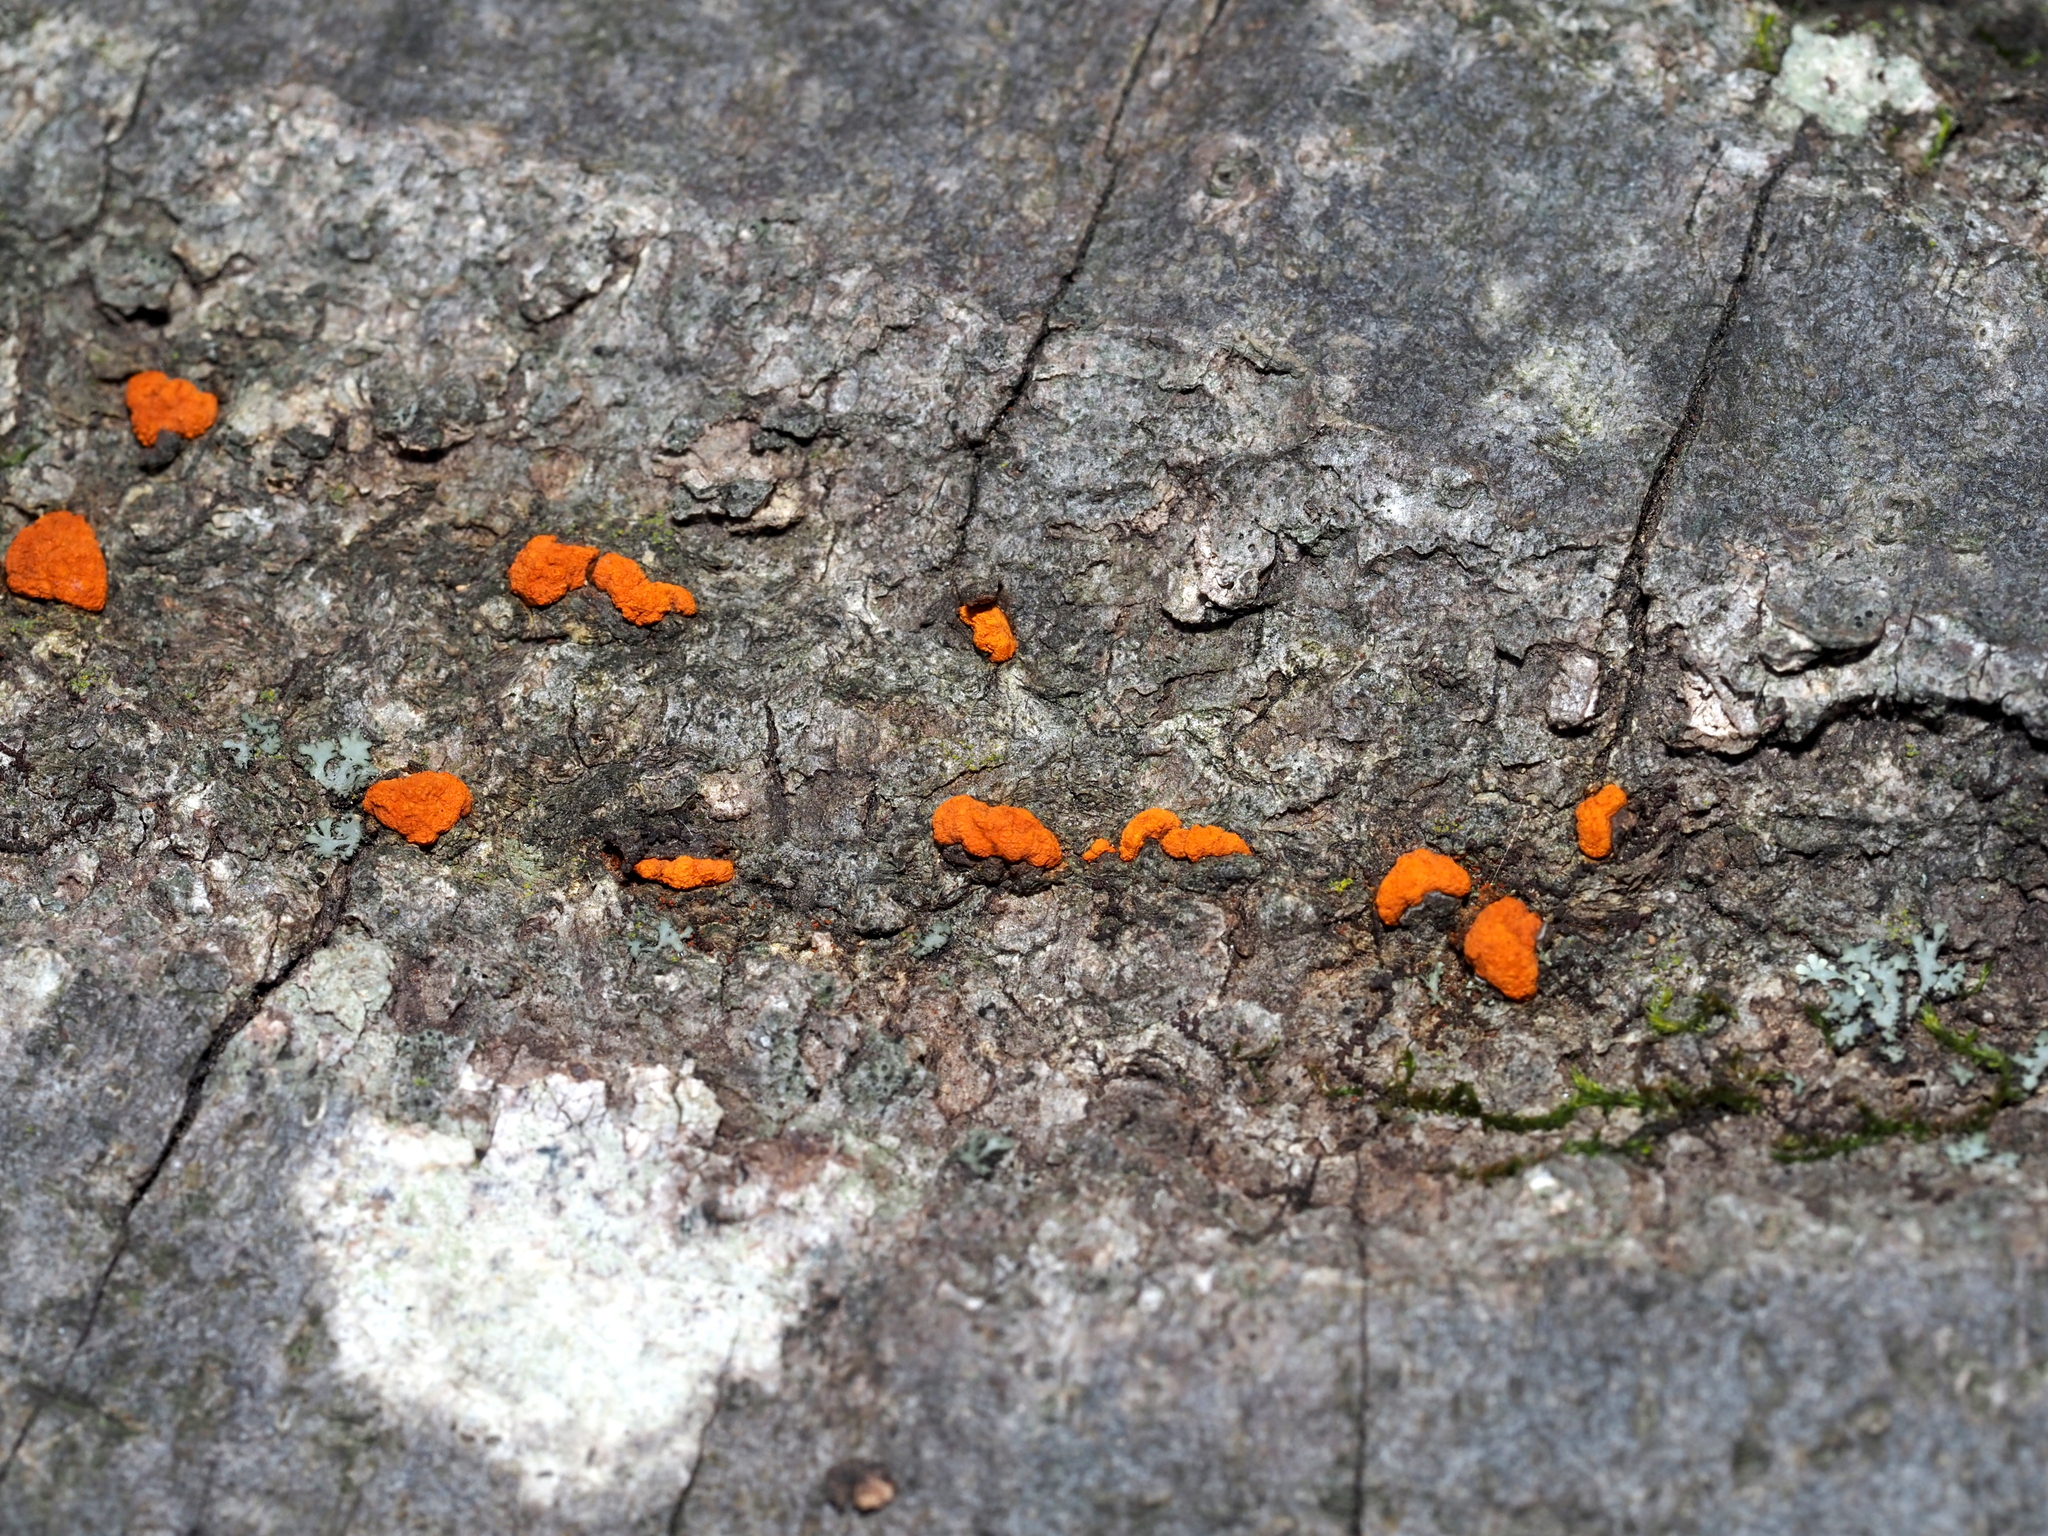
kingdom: Fungi
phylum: Ascomycota
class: Sordariomycetes
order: Diaporthales
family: Cryphonectriaceae
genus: Amphilogia
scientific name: Amphilogia gyrosa
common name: Orange hobnail canker
